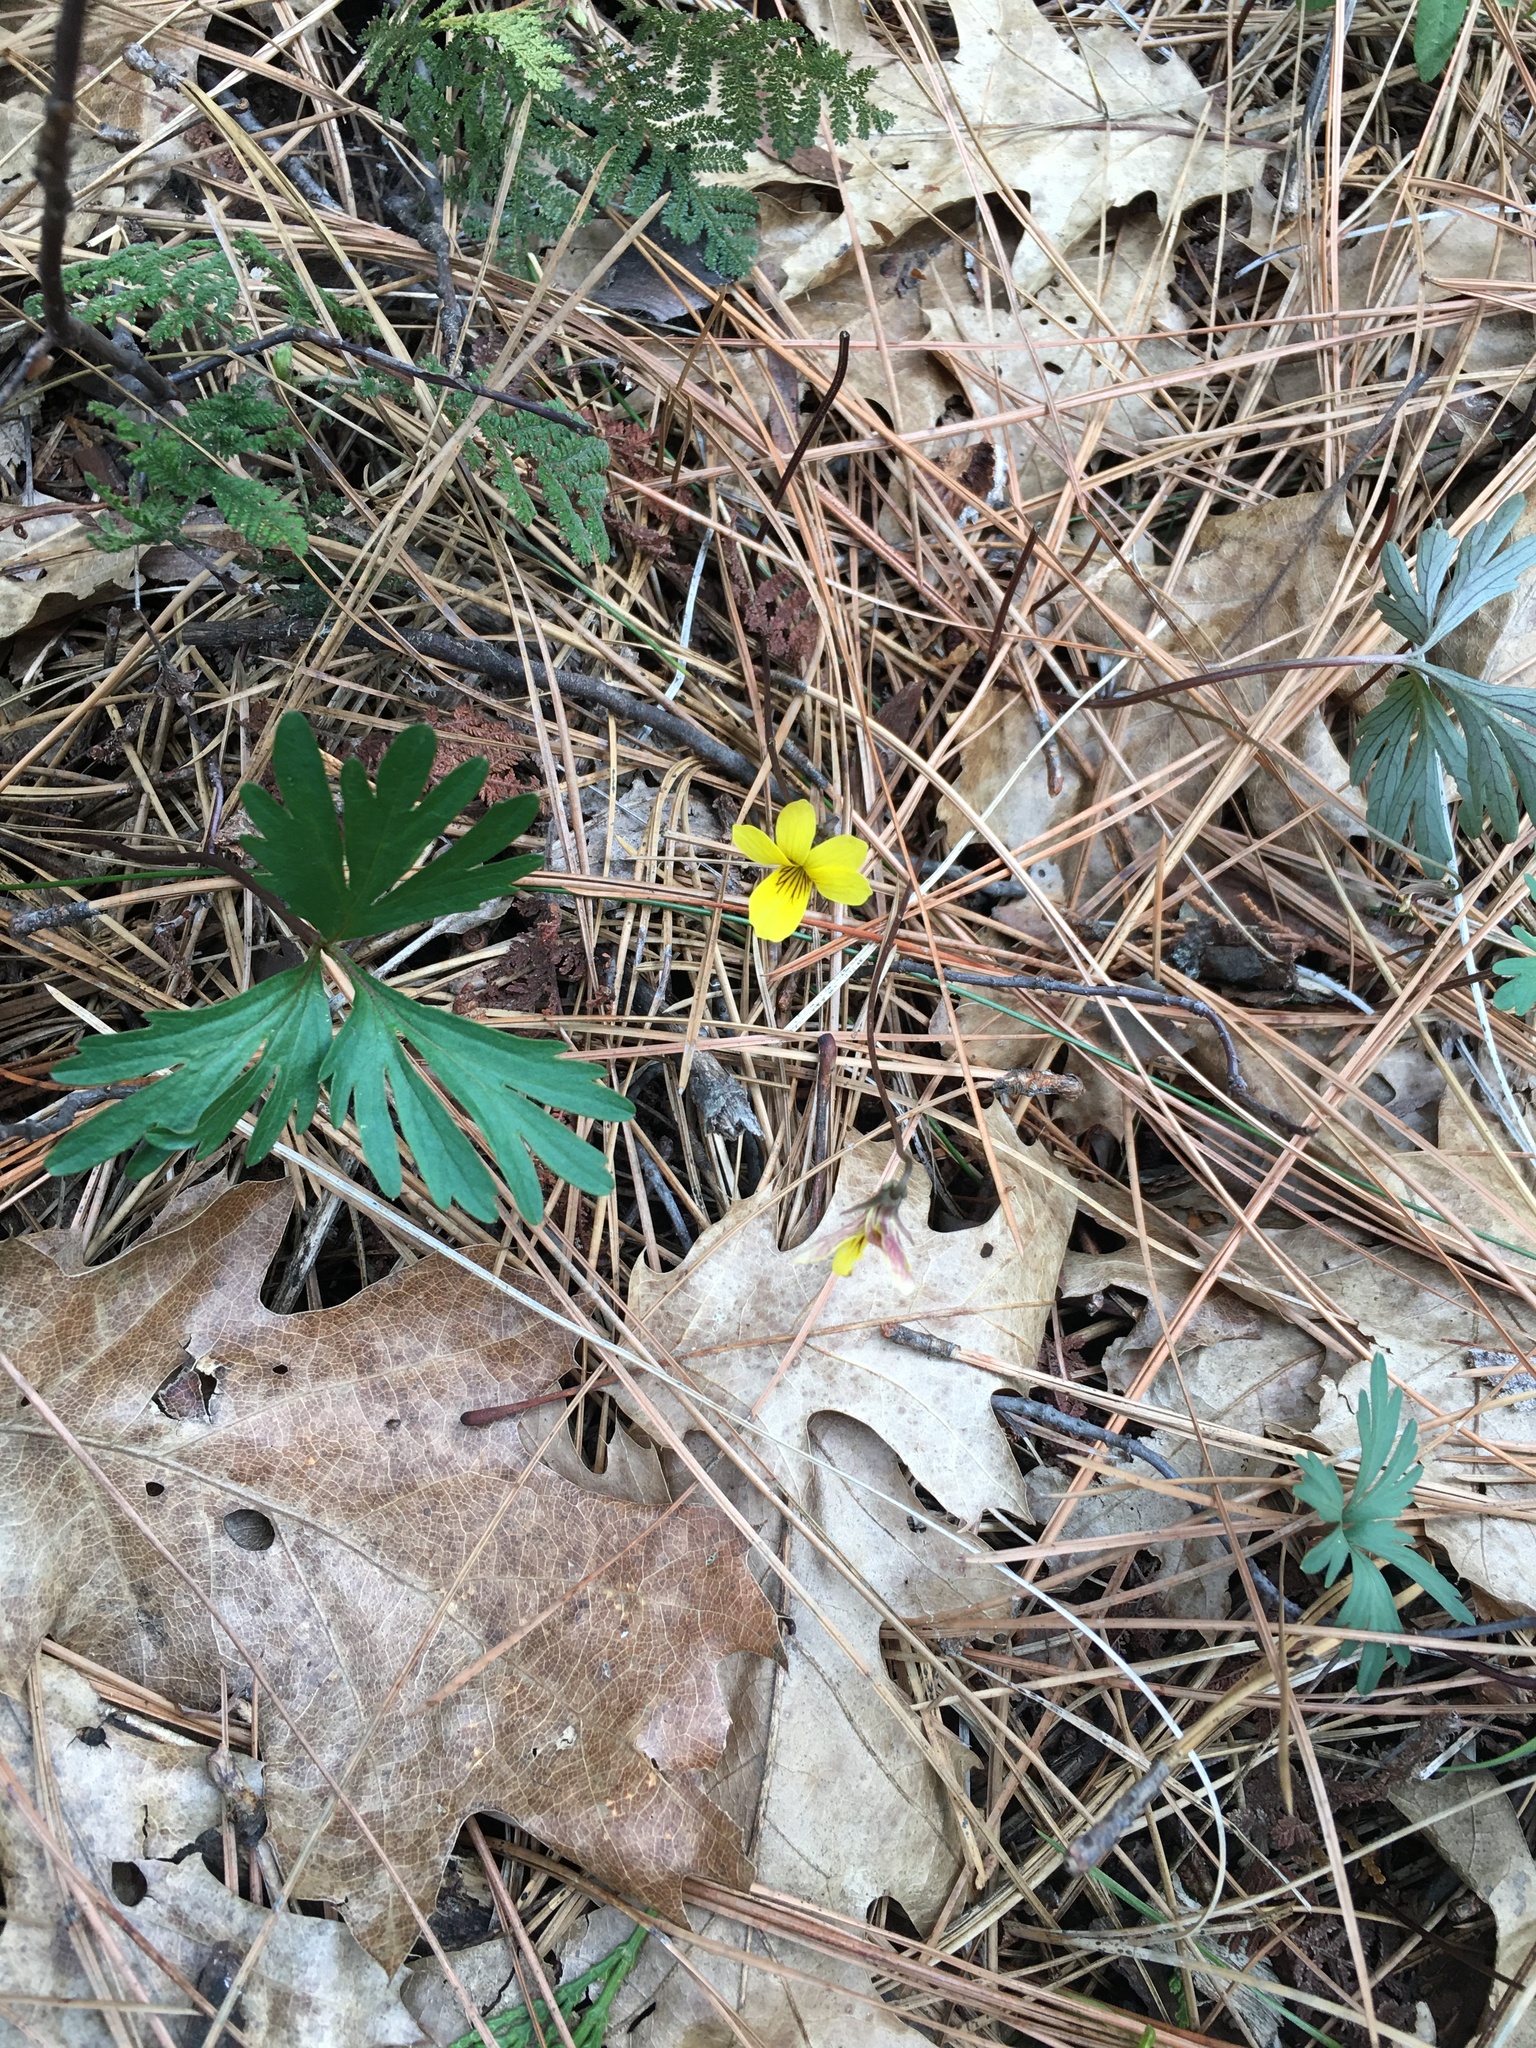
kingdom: Plantae
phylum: Tracheophyta
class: Magnoliopsida
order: Malpighiales
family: Violaceae
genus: Viola
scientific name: Viola sheltonii
